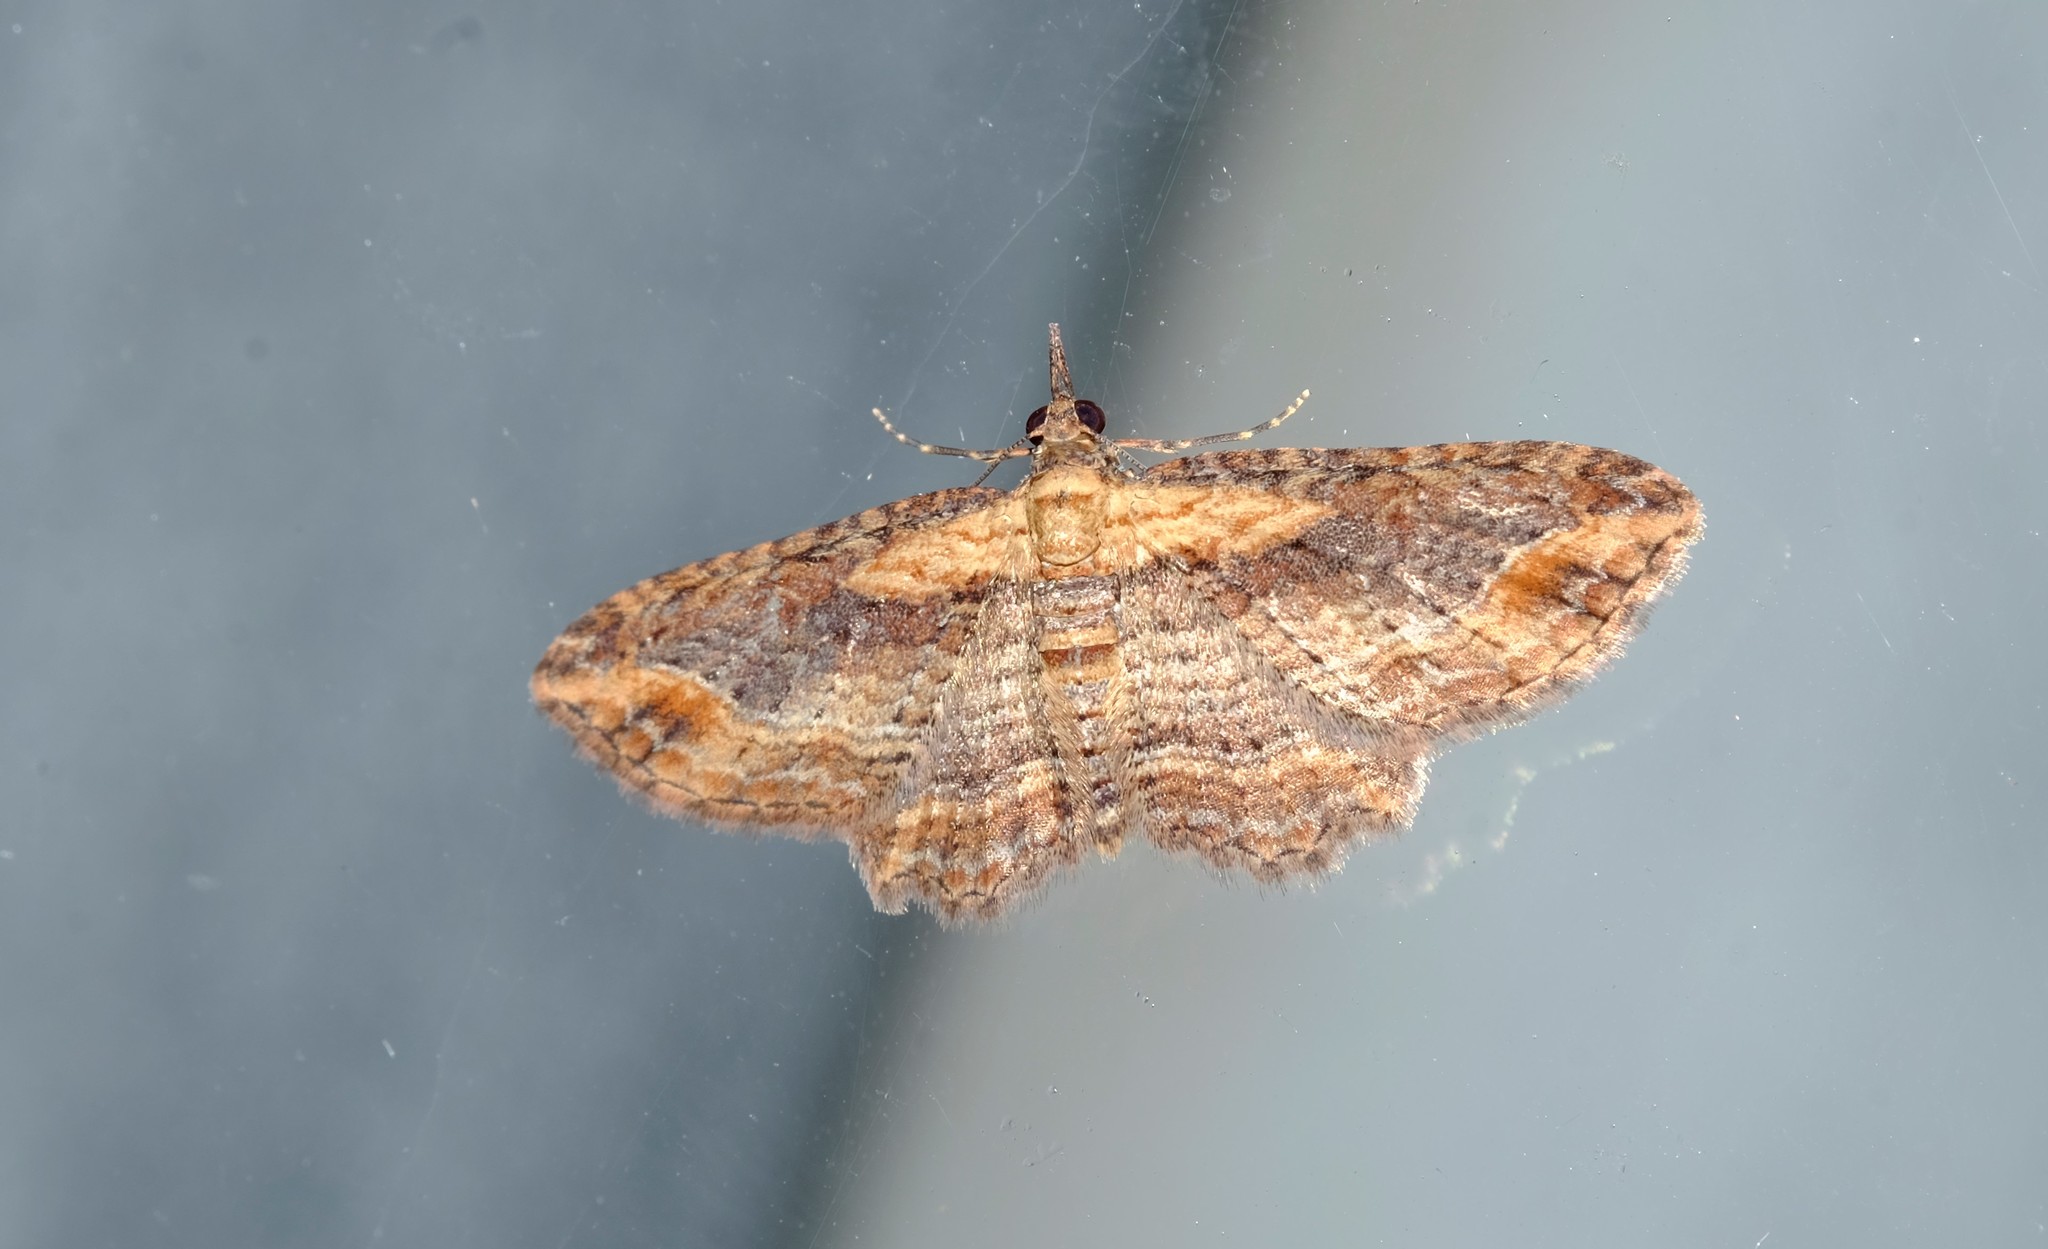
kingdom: Animalia
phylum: Arthropoda
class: Insecta
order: Lepidoptera
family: Geometridae
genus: Chloroclystis
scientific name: Chloroclystis filata
